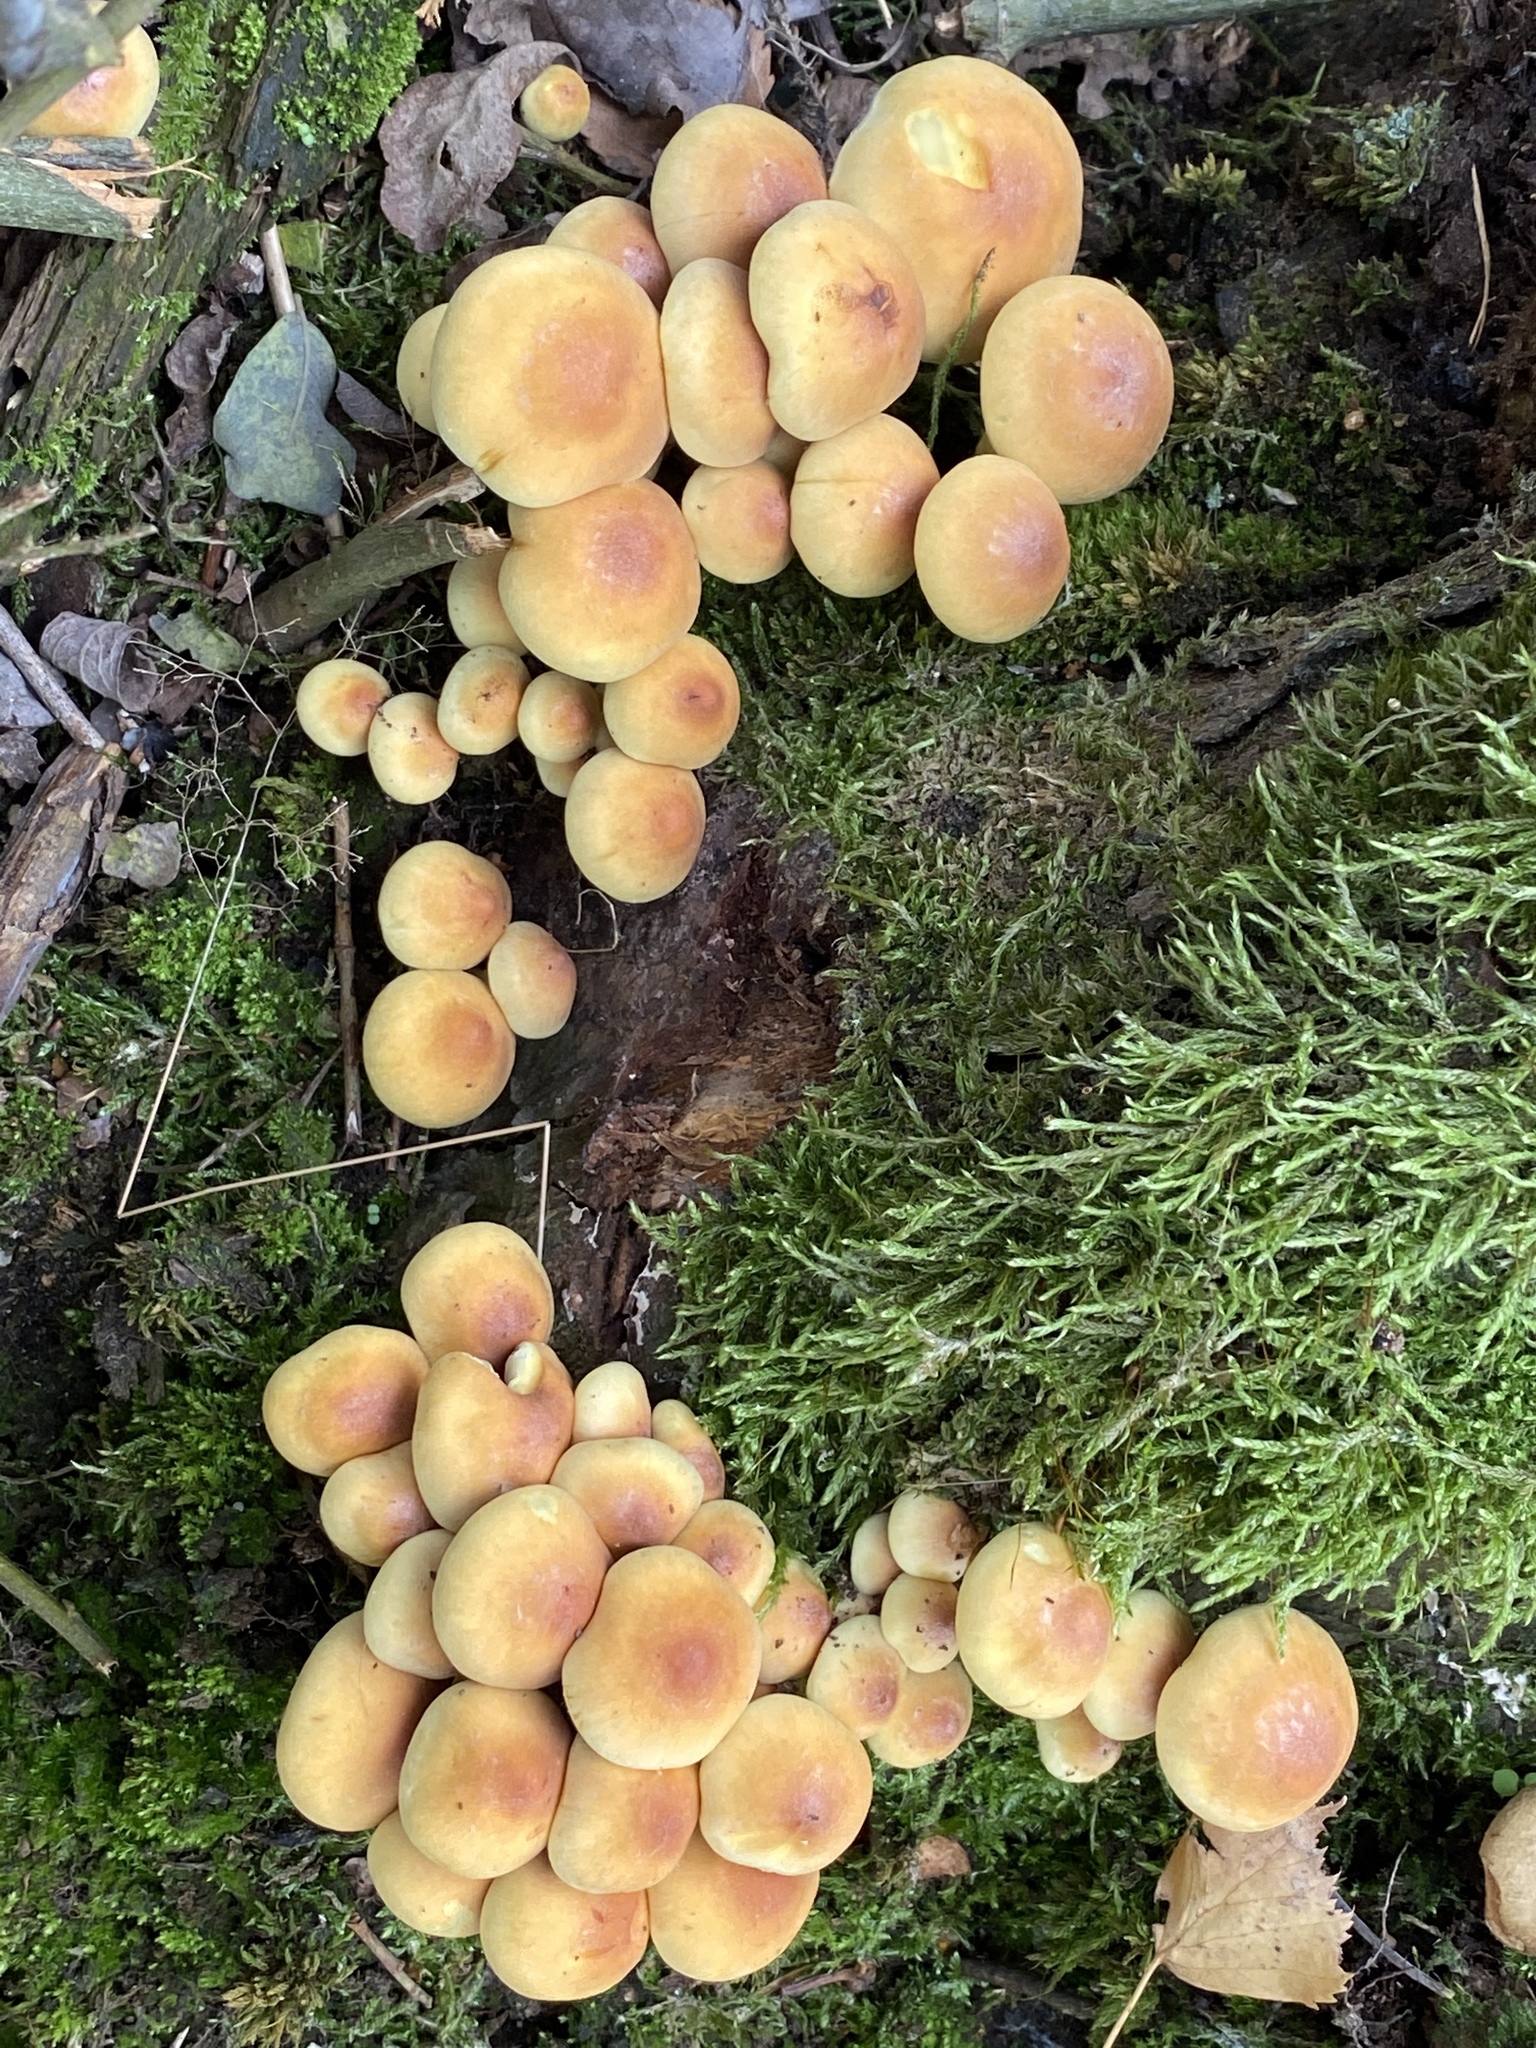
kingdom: Fungi
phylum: Basidiomycota
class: Agaricomycetes
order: Agaricales
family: Strophariaceae
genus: Hypholoma
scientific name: Hypholoma fasciculare
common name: Sulphur tuft
